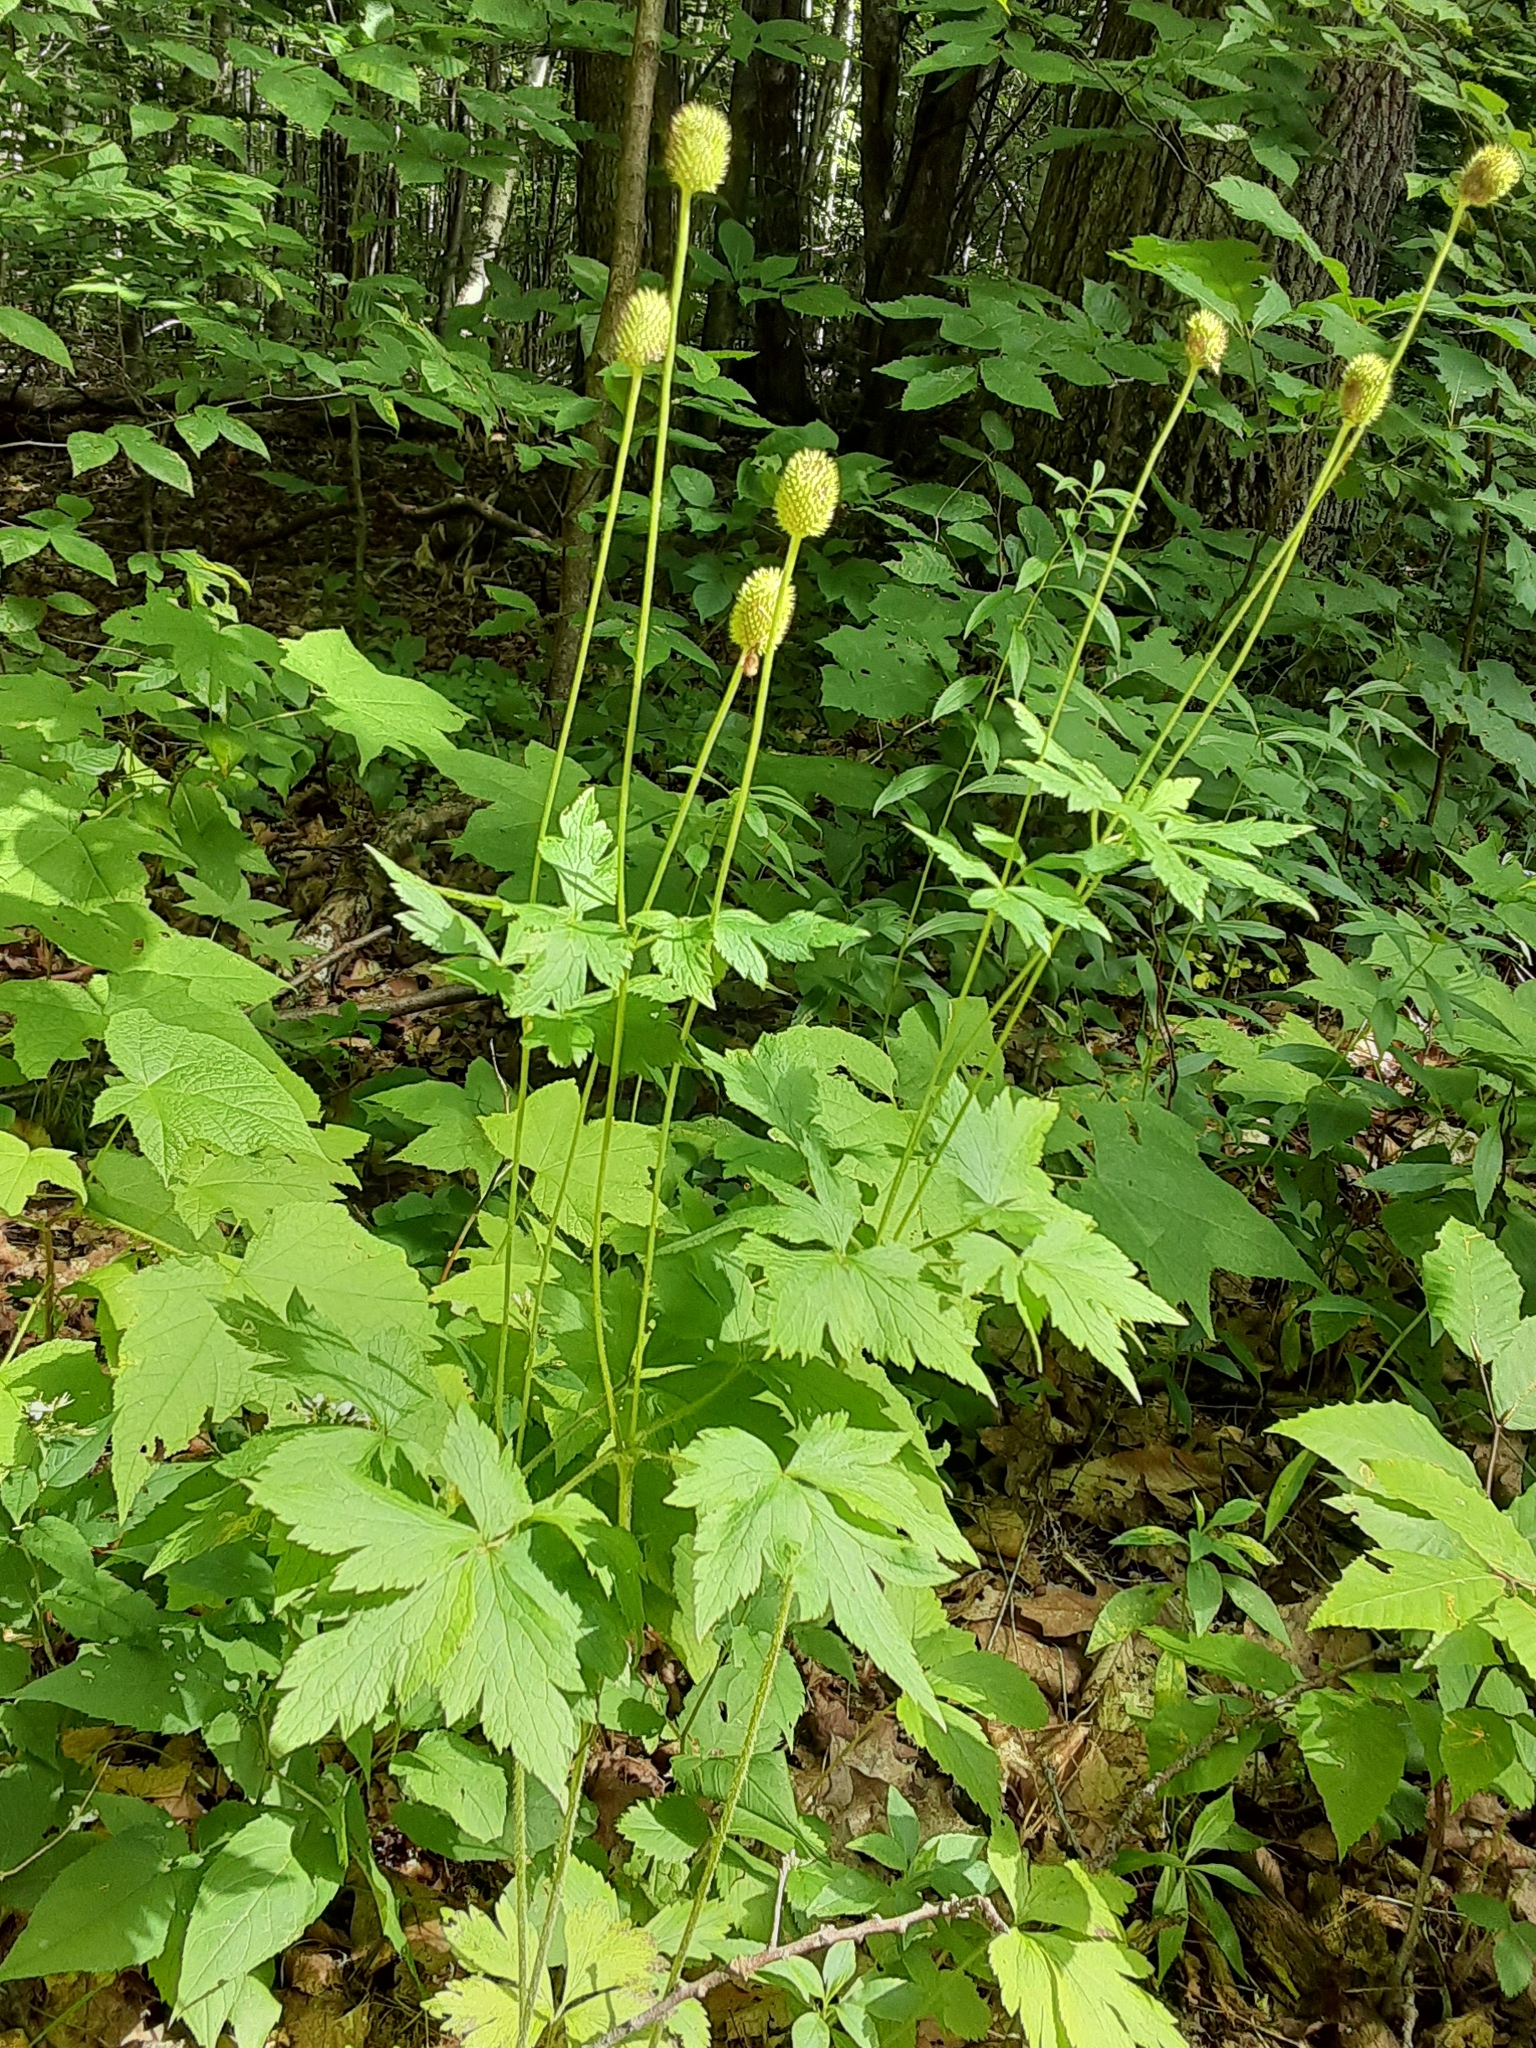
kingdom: Plantae
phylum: Tracheophyta
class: Magnoliopsida
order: Ranunculales
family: Ranunculaceae
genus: Anemone
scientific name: Anemone virginiana
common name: Tall anemone
